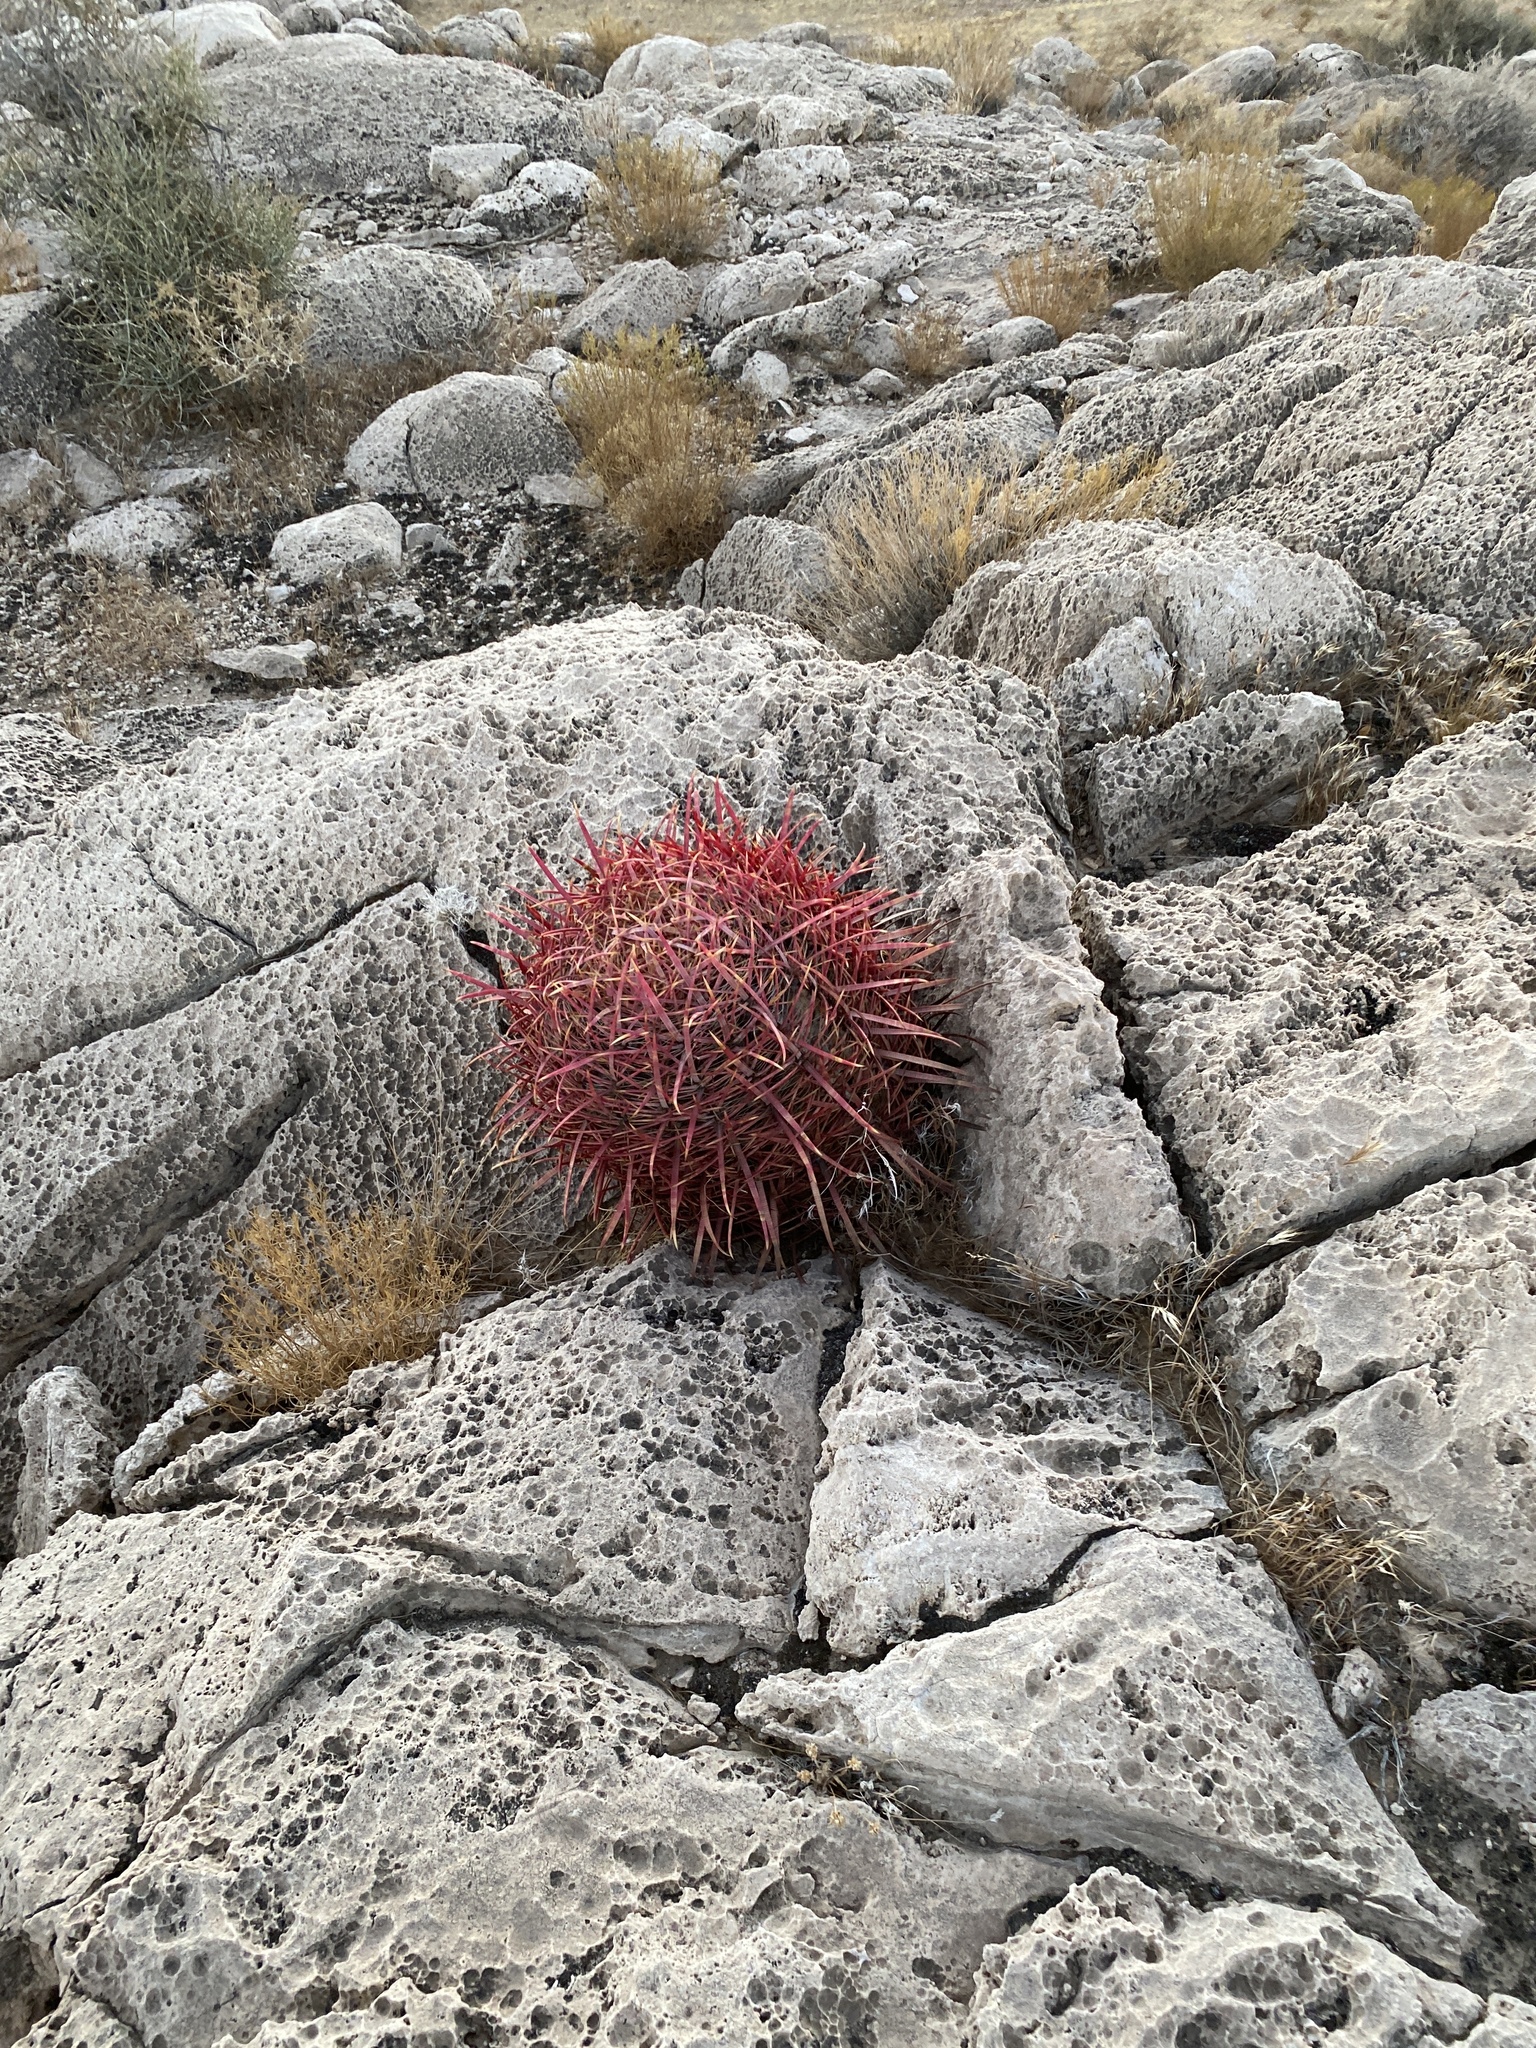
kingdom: Plantae
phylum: Tracheophyta
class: Magnoliopsida
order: Caryophyllales
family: Cactaceae
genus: Ferocactus
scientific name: Ferocactus cylindraceus
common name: California barrel cactus
